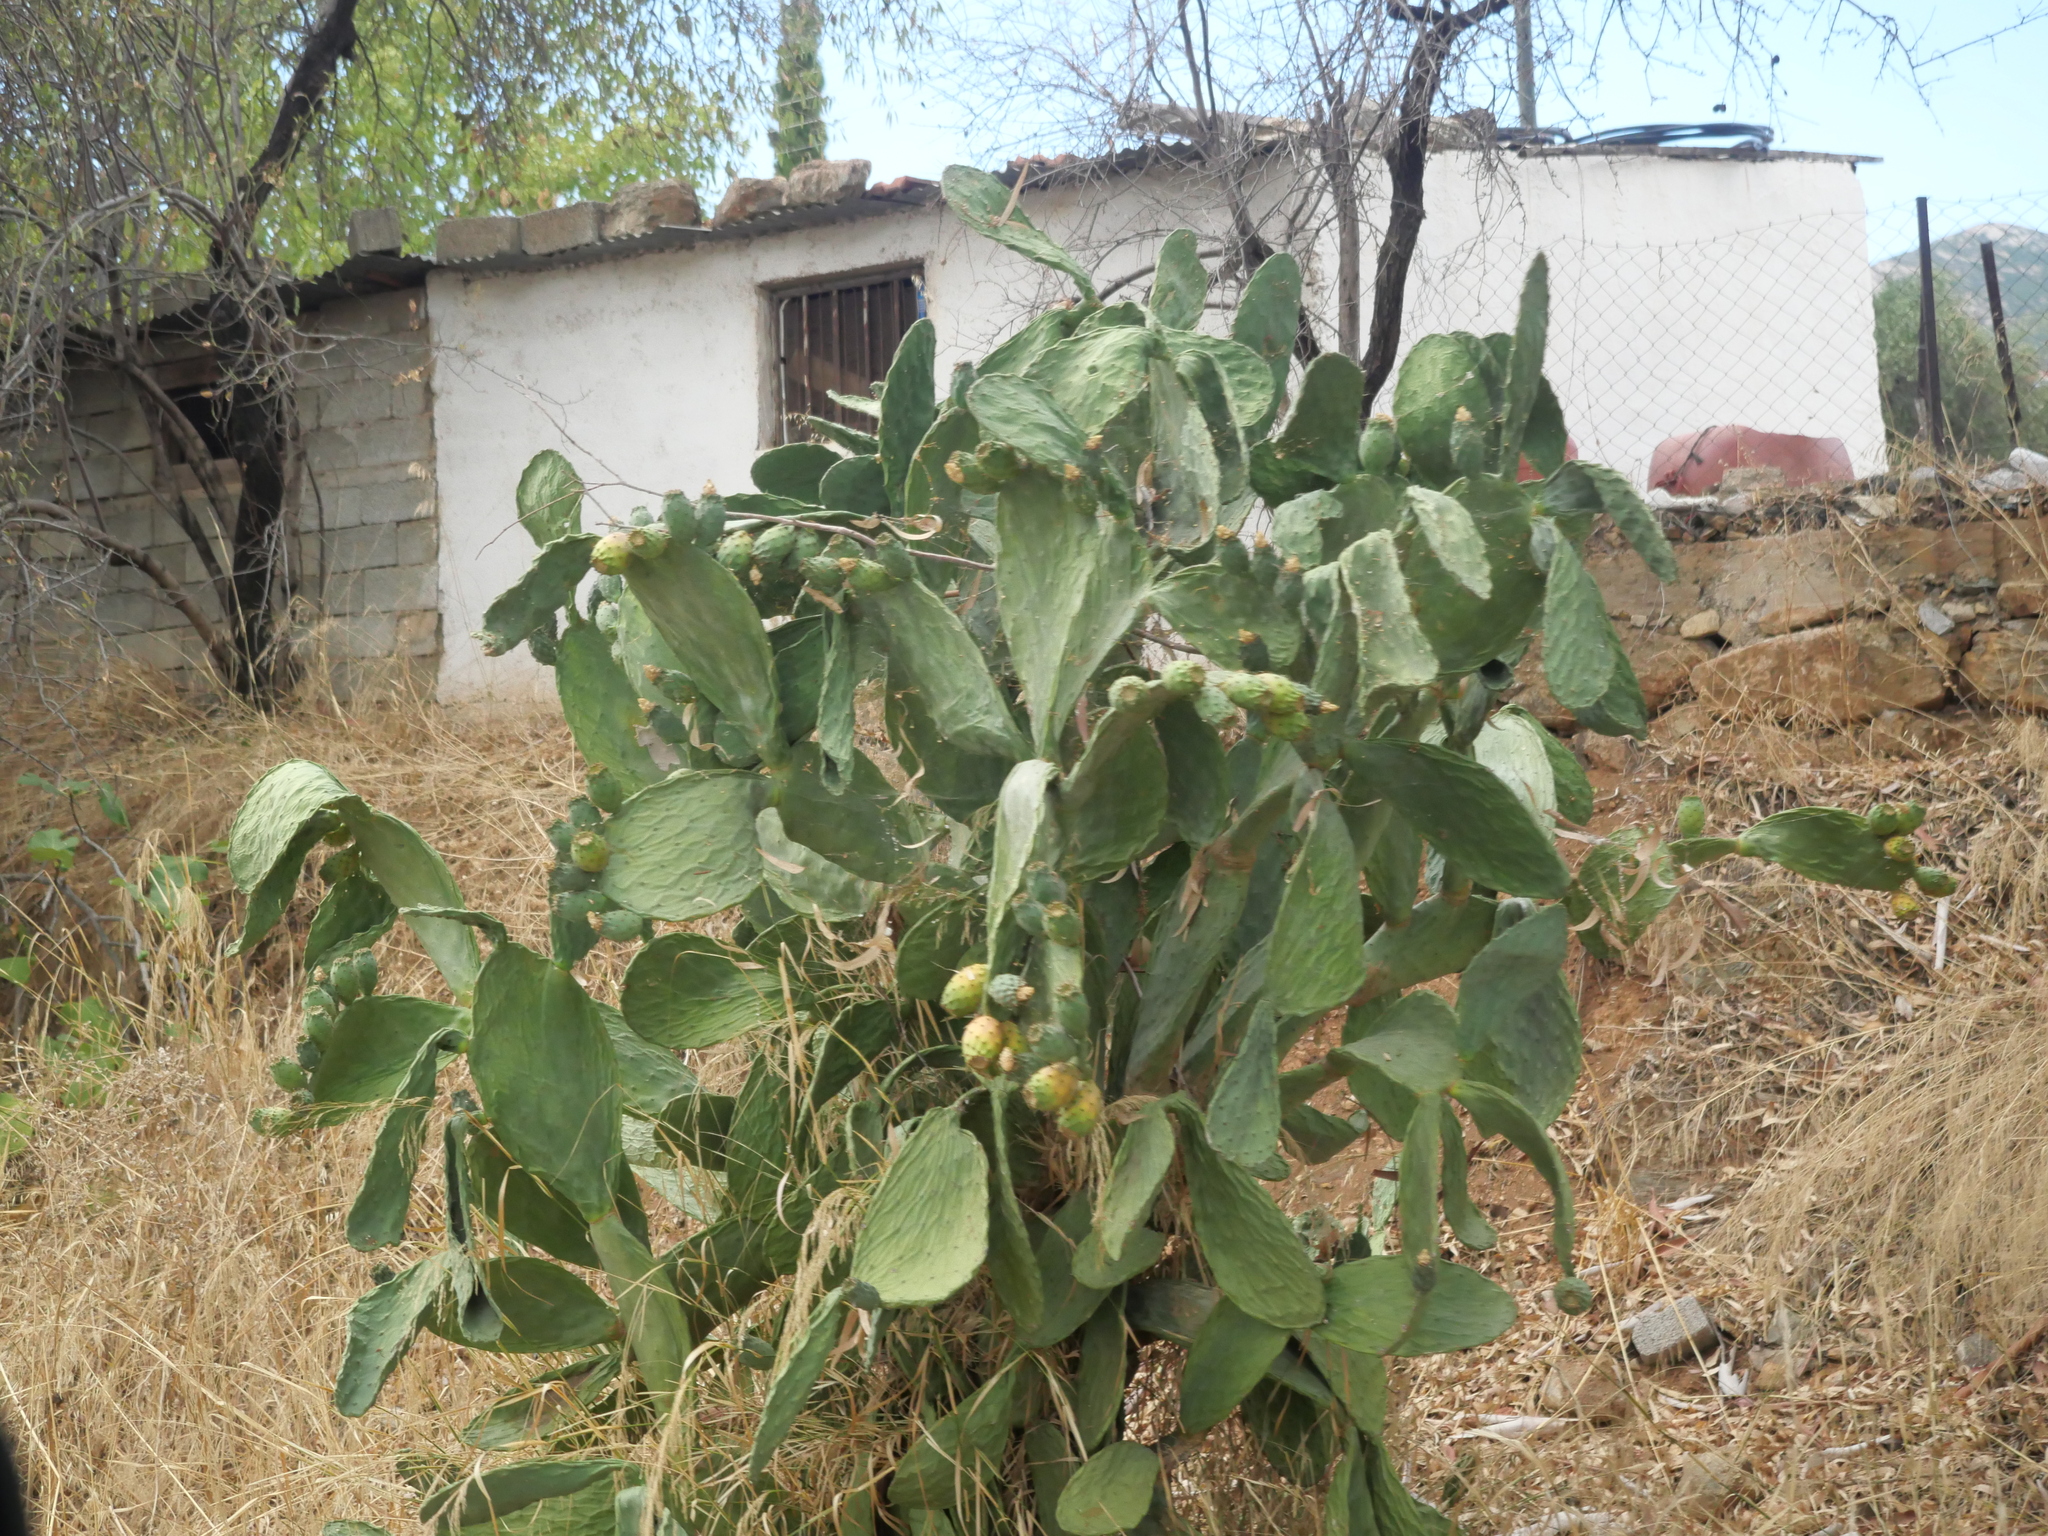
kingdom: Plantae
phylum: Tracheophyta
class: Magnoliopsida
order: Caryophyllales
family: Cactaceae
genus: Opuntia
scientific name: Opuntia ficus-indica
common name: Barbary fig
